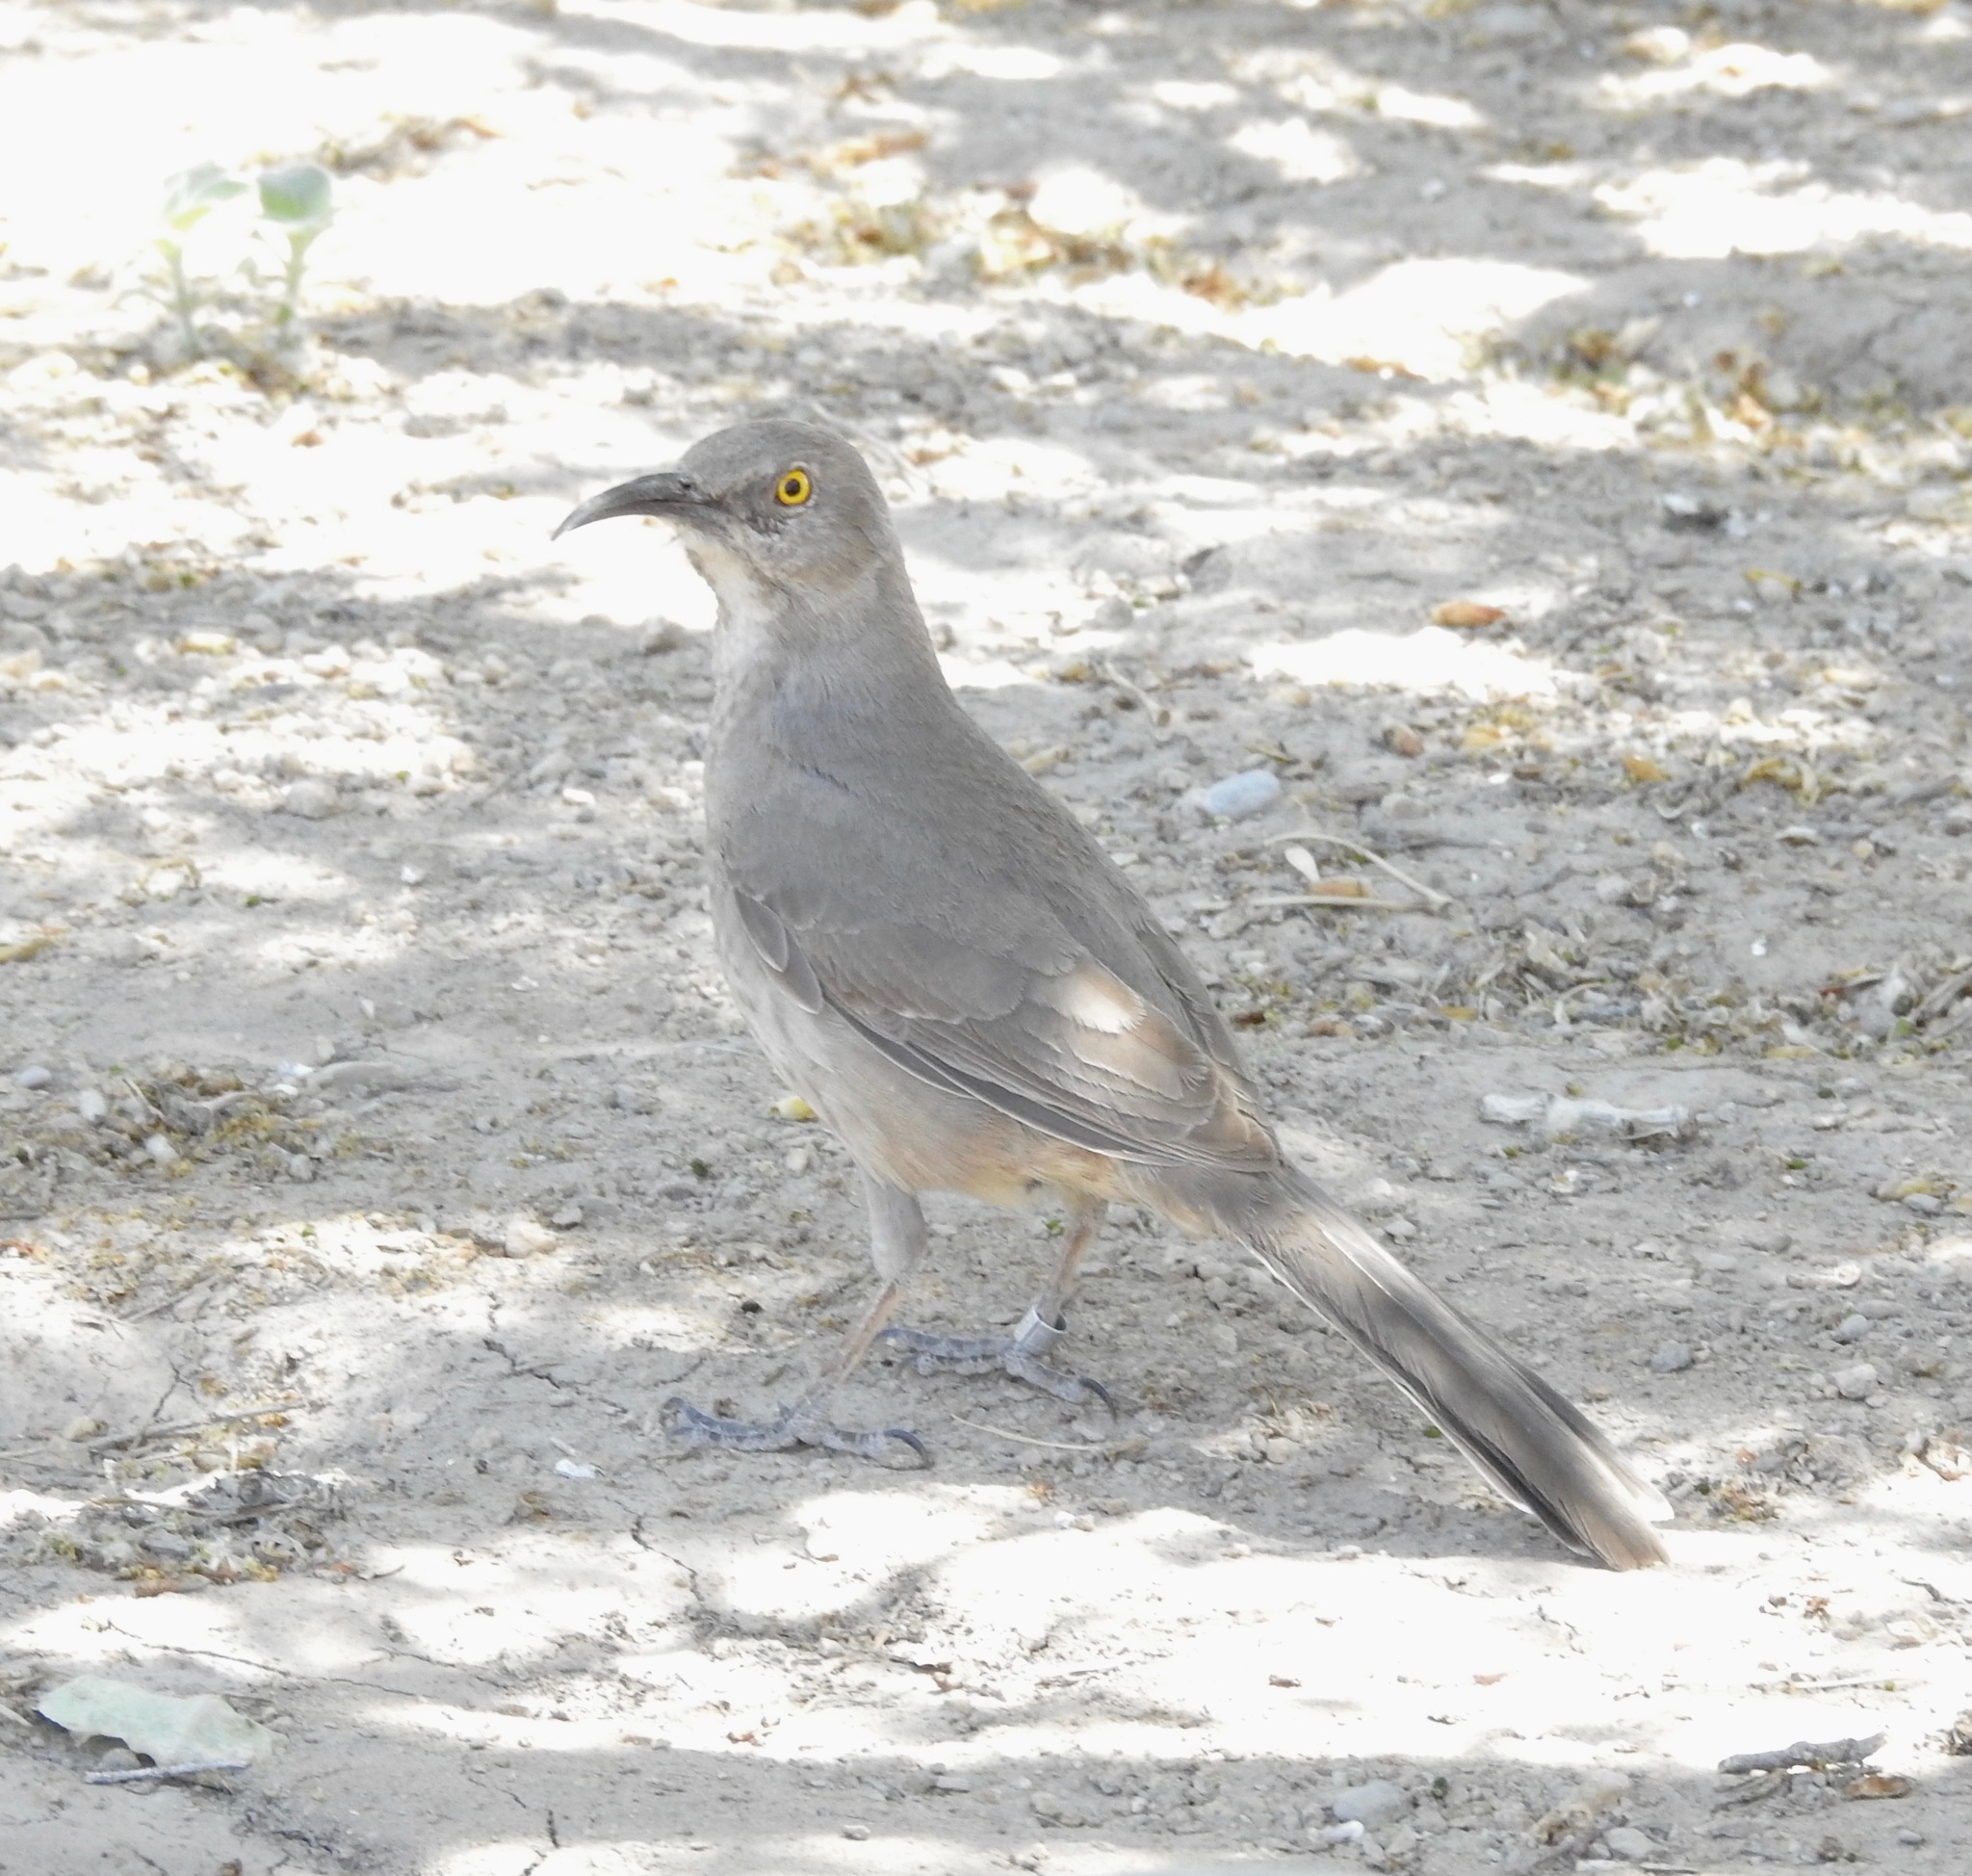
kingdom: Animalia
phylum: Chordata
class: Aves
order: Passeriformes
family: Mimidae
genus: Toxostoma
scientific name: Toxostoma curvirostre
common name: Curve-billed thrasher
